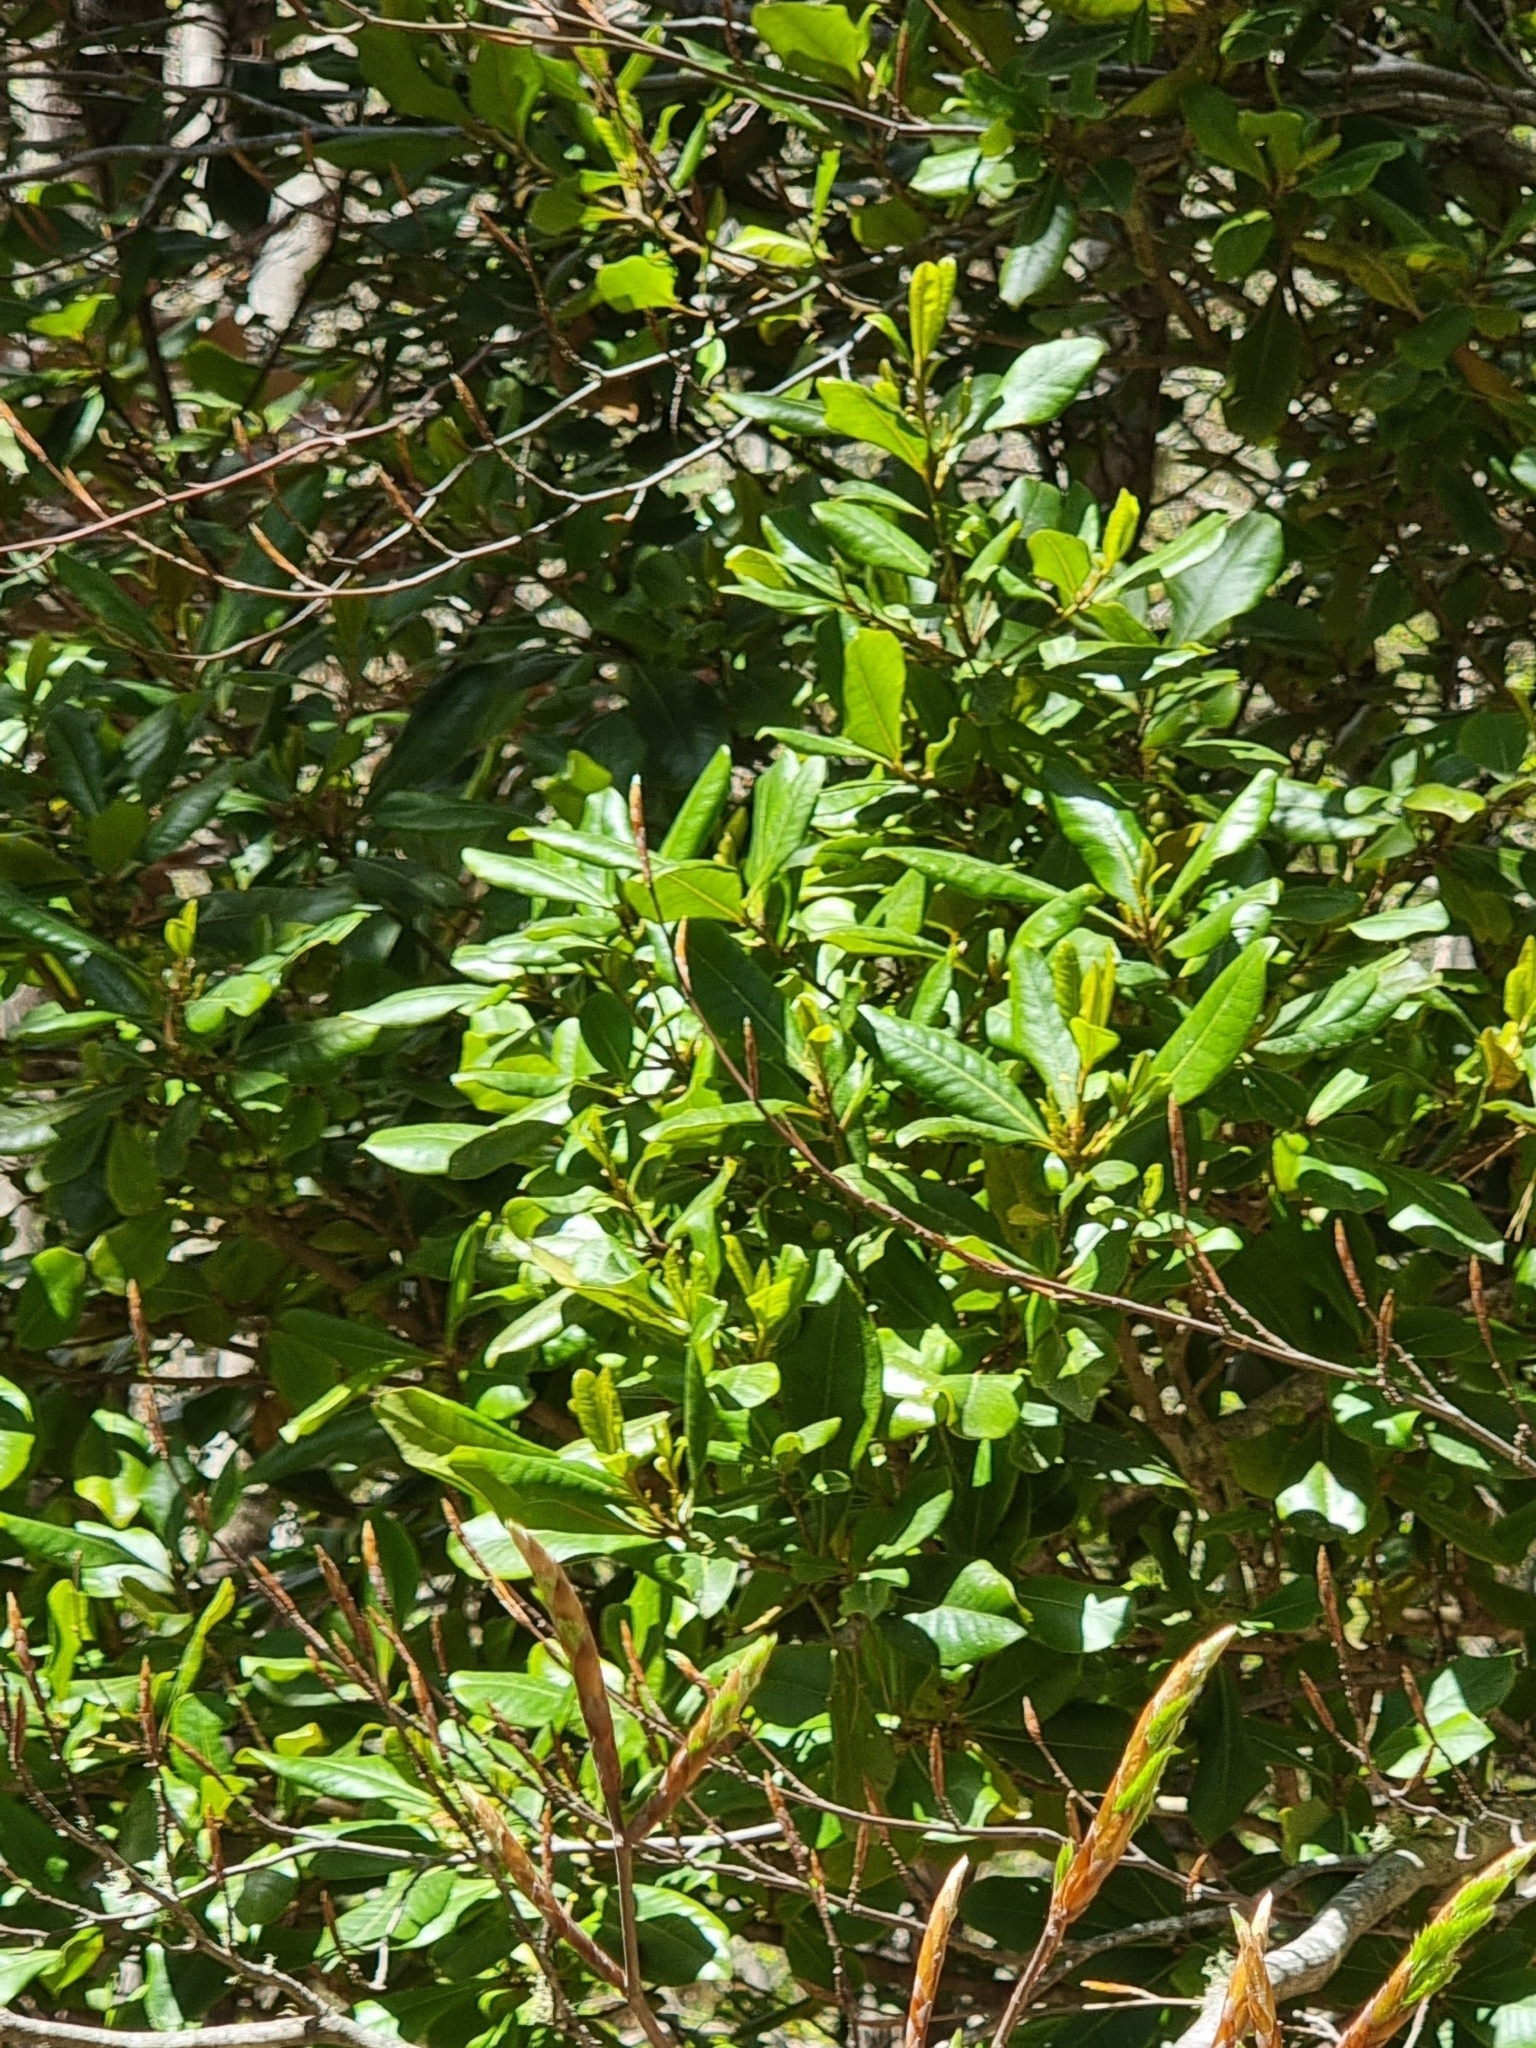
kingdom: Plantae
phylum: Tracheophyta
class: Magnoliopsida
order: Ericales
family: Primulaceae
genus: Heberdenia
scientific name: Heberdenia excelsa
